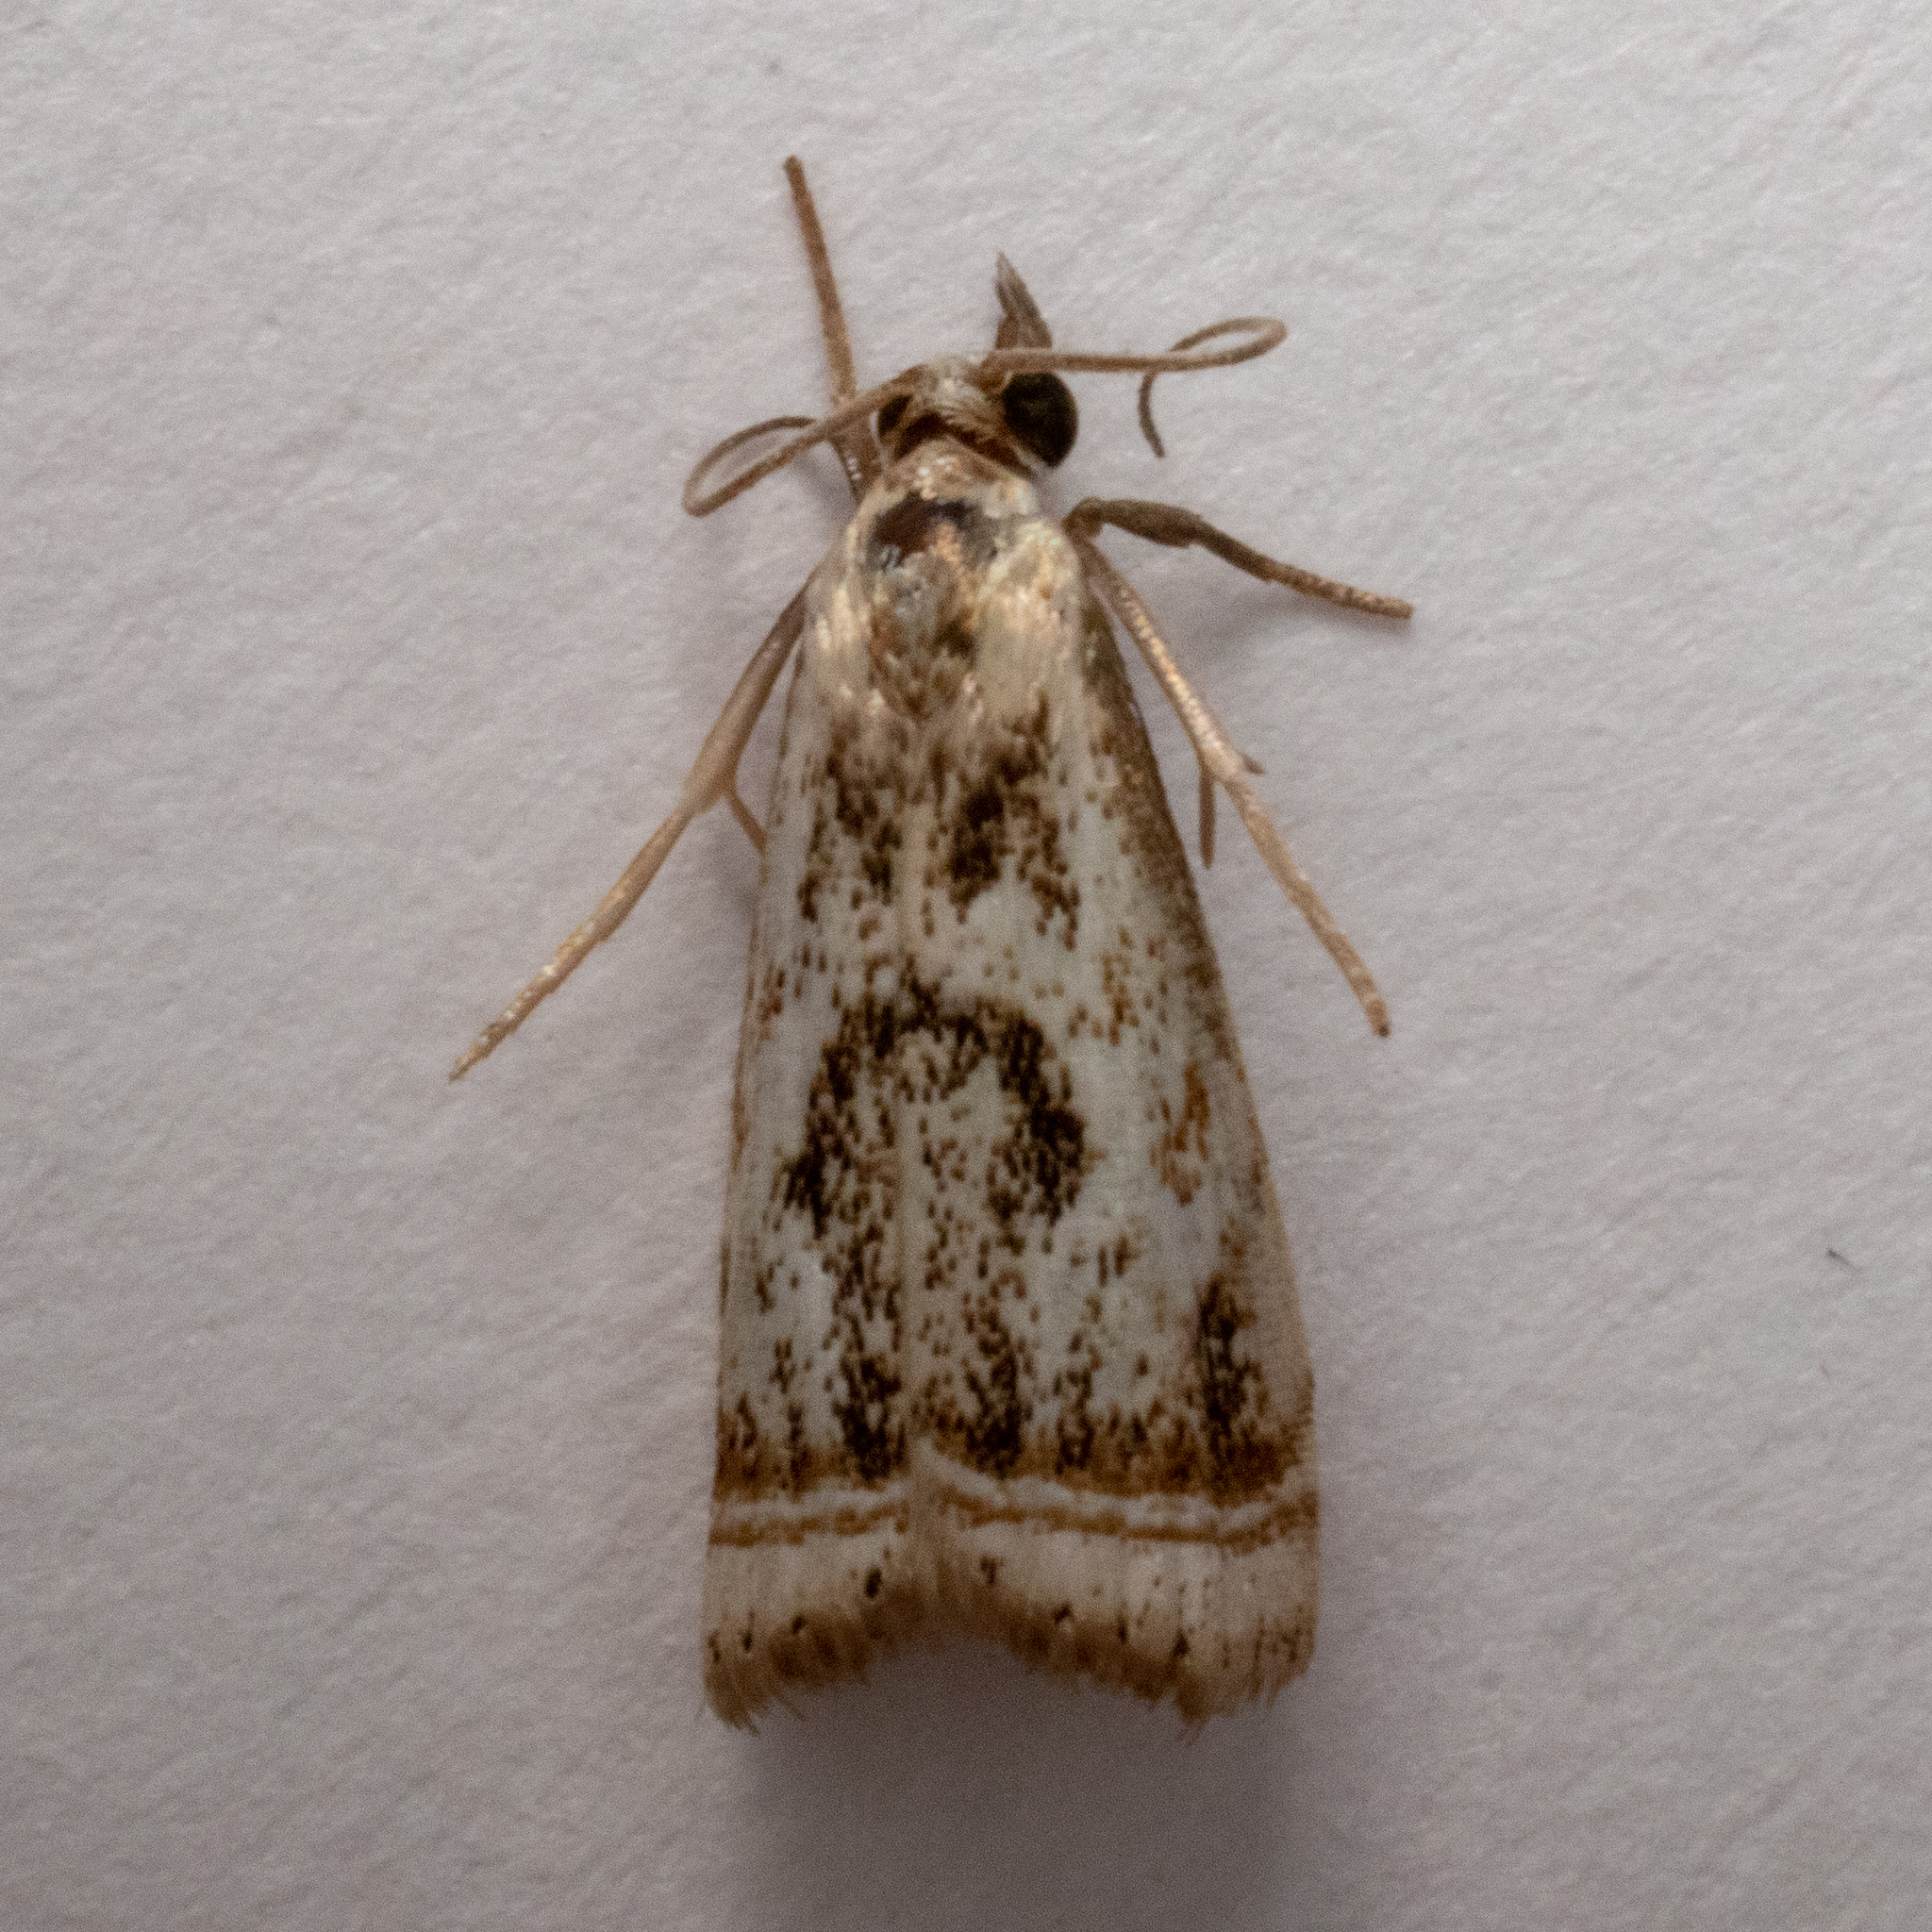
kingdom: Animalia
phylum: Arthropoda
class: Insecta
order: Lepidoptera
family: Crambidae
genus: Microcrambus
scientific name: Microcrambus elegans
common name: Elegant grass-veneer
